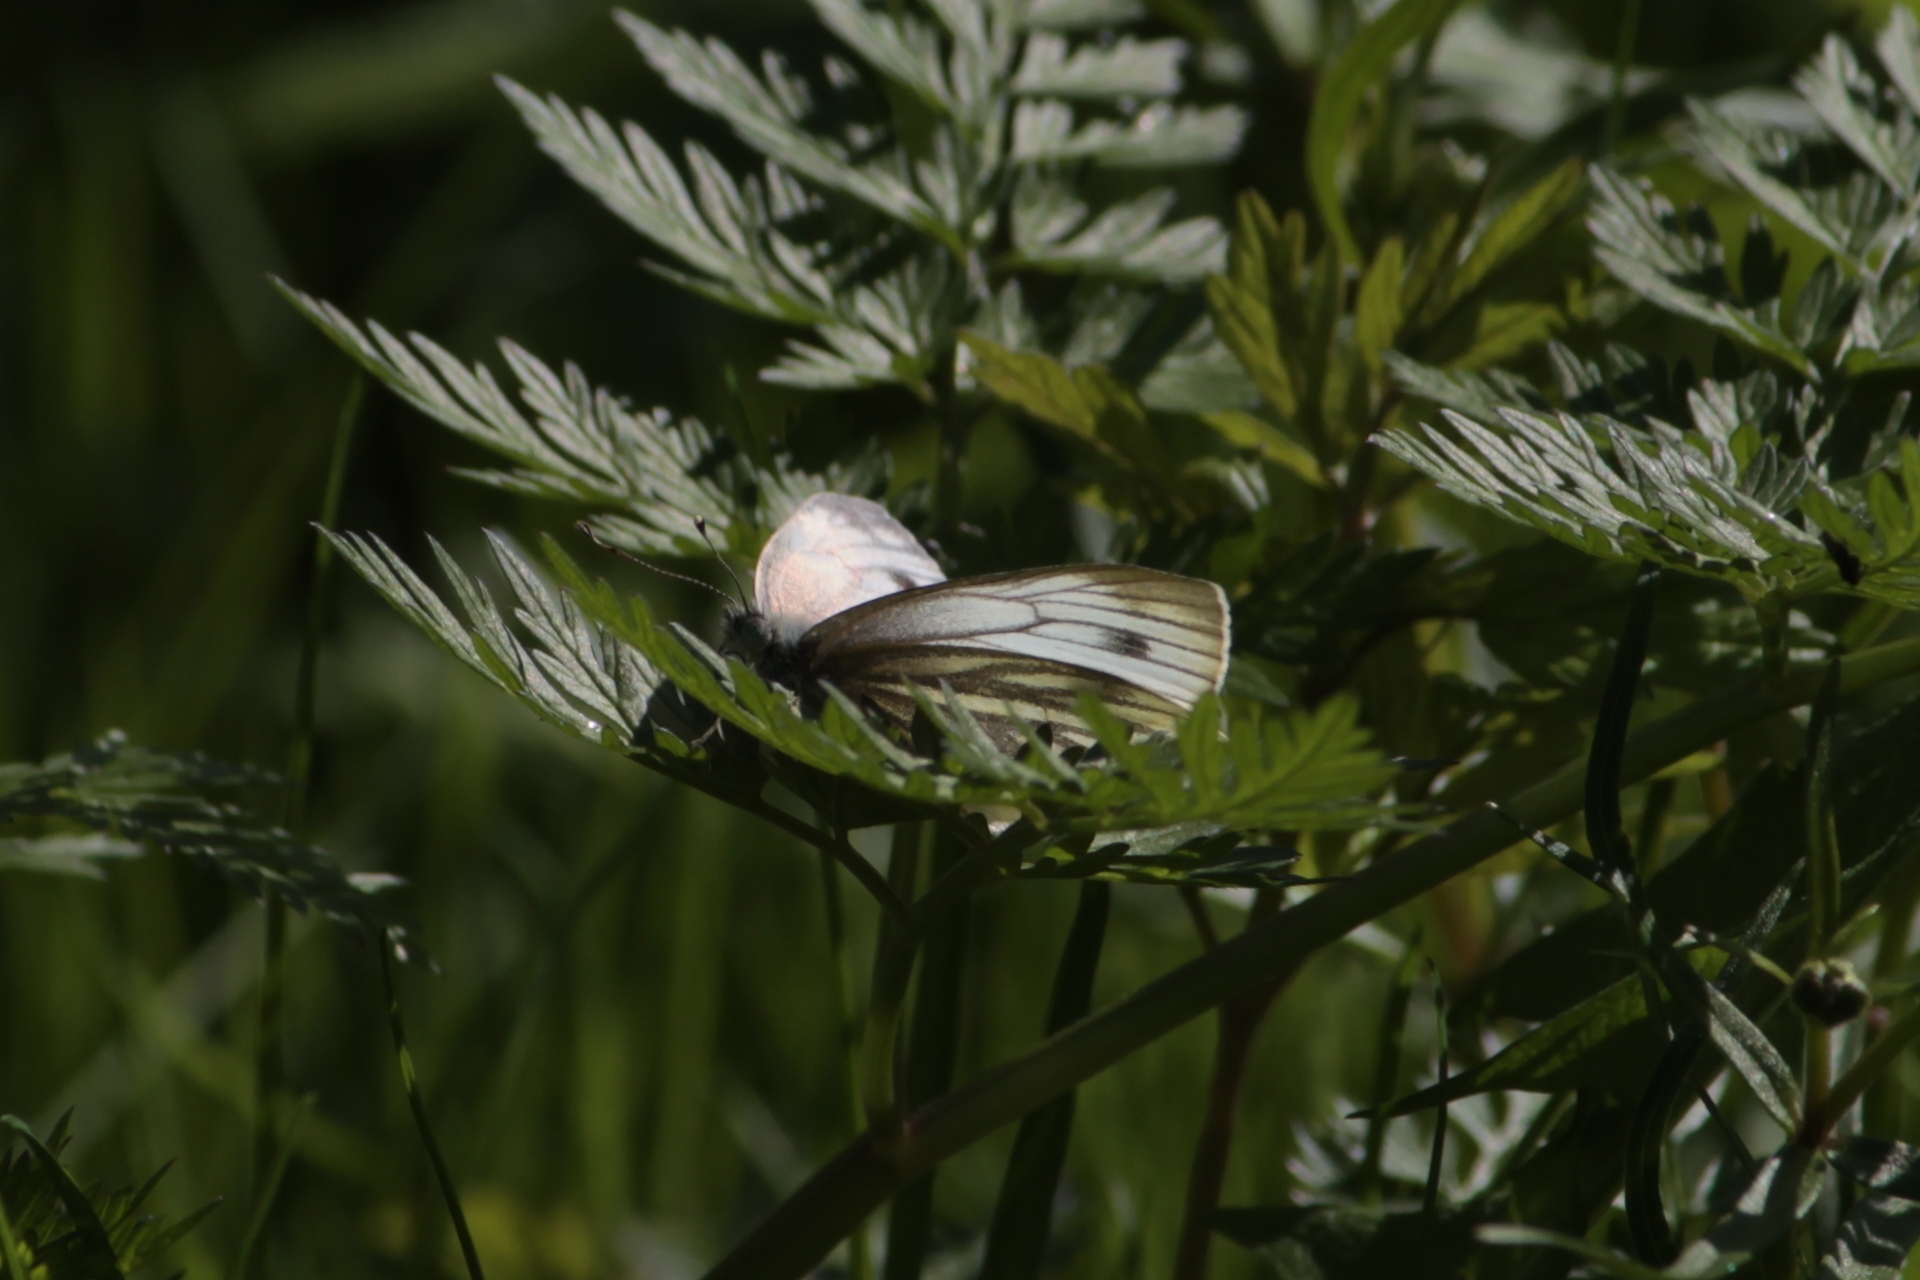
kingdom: Animalia
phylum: Arthropoda
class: Insecta
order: Lepidoptera
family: Pieridae
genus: Pieris
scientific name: Pieris napi
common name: Green-veined white
